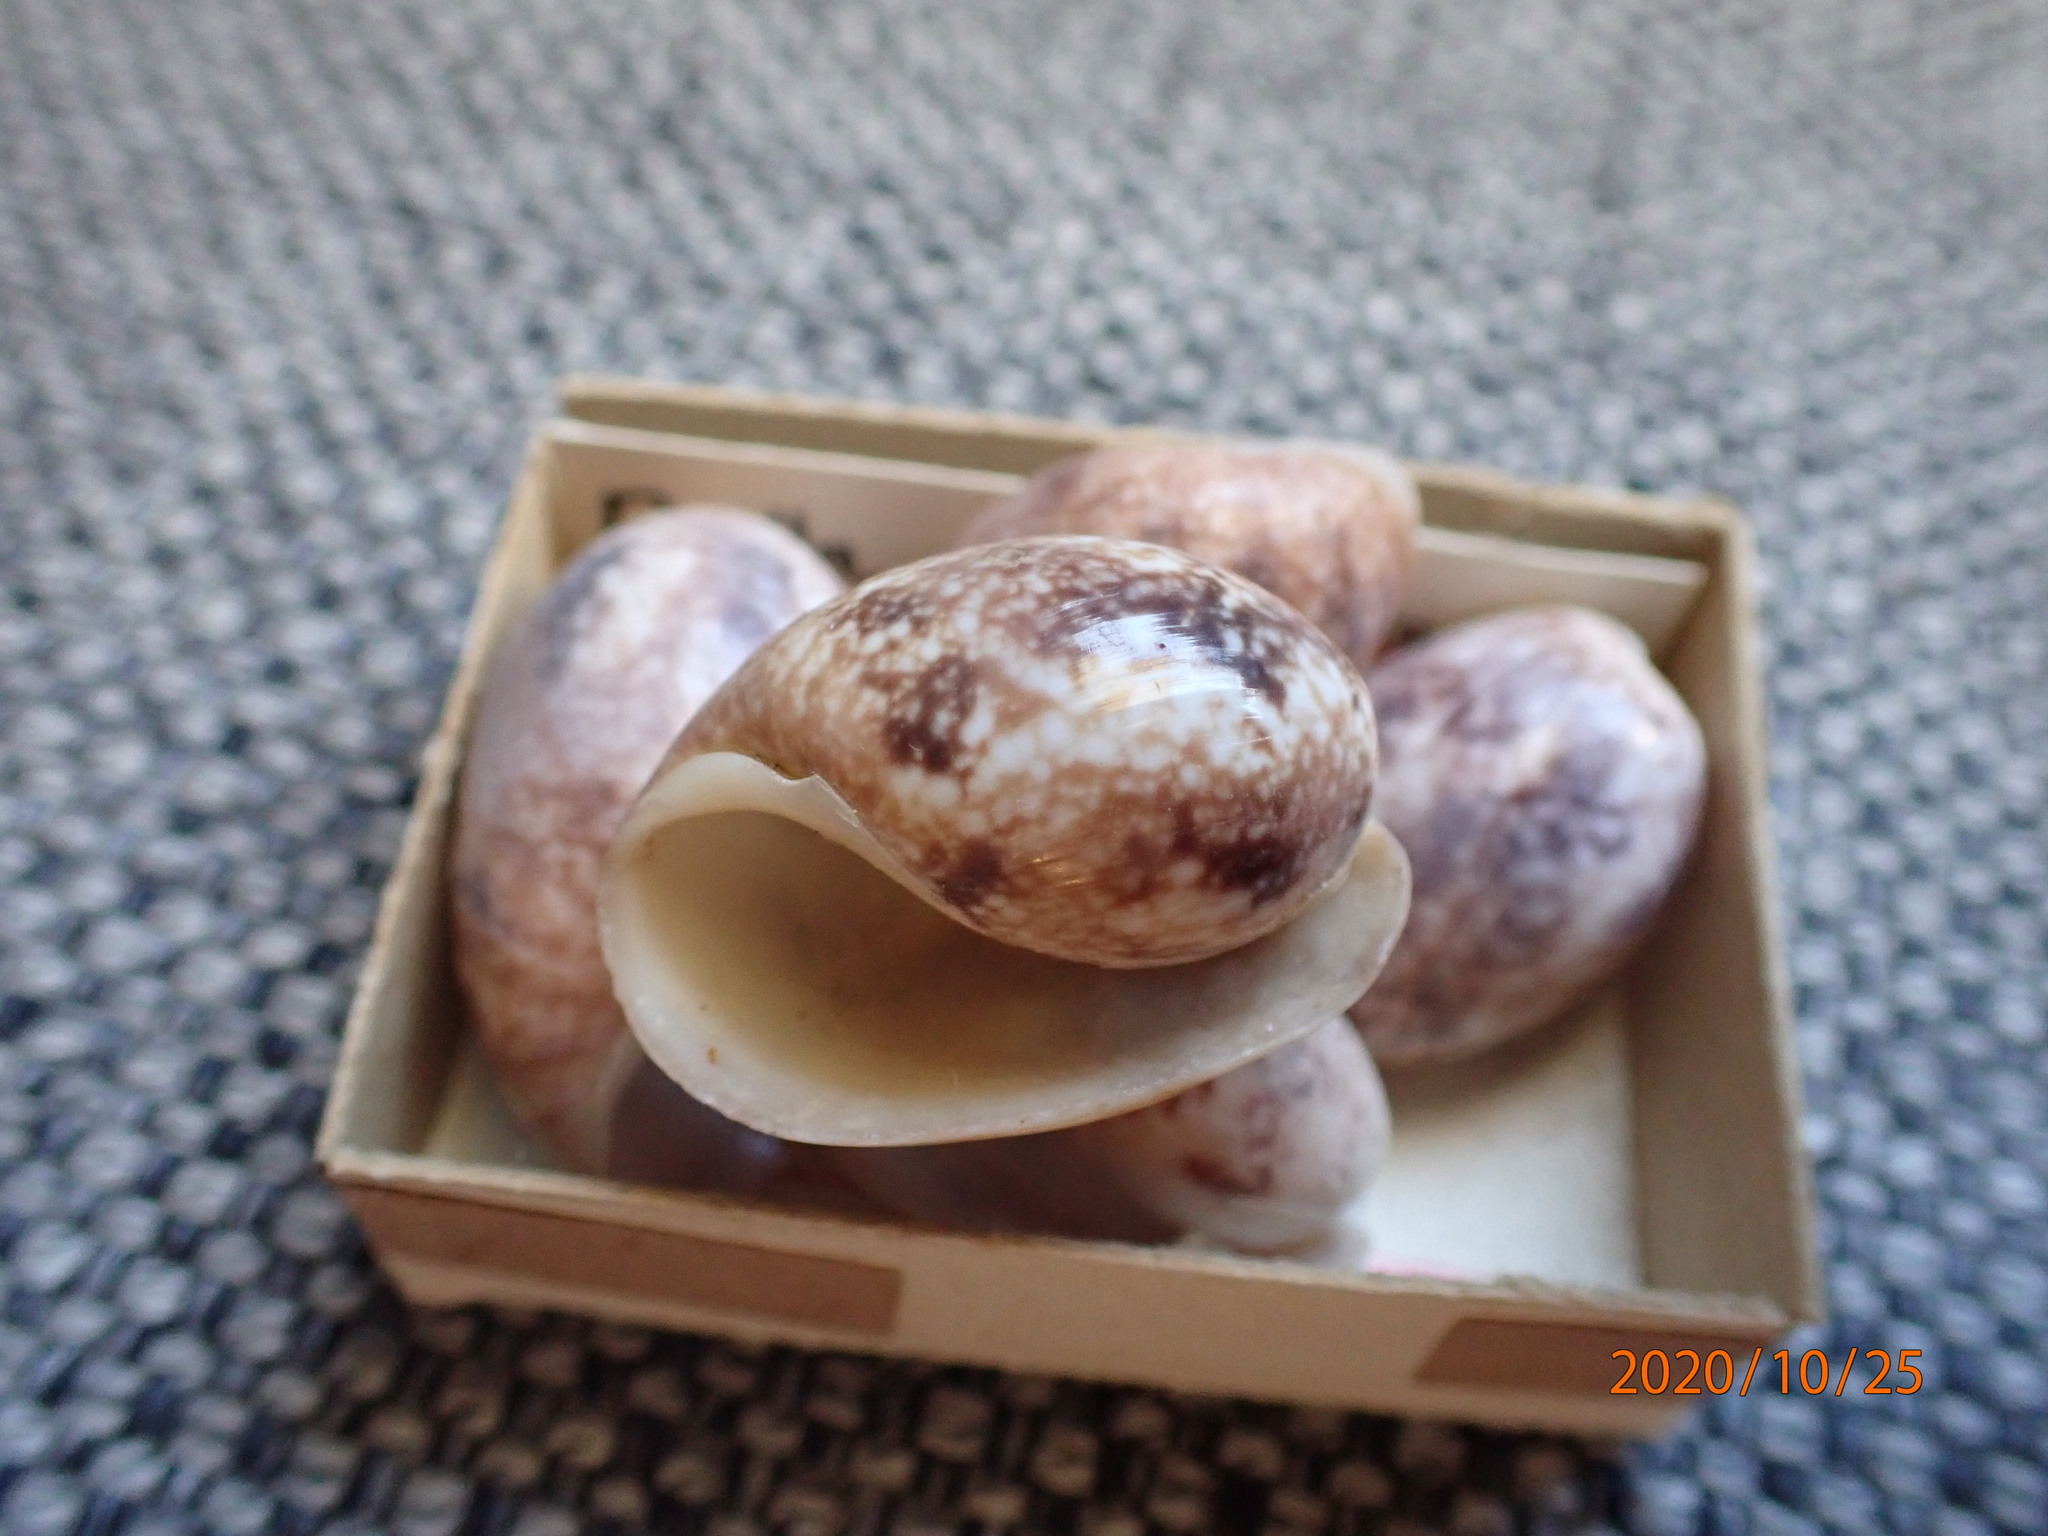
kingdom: Animalia
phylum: Mollusca
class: Gastropoda
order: Cephalaspidea
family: Bullidae
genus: Bulla
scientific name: Bulla vernicosa
